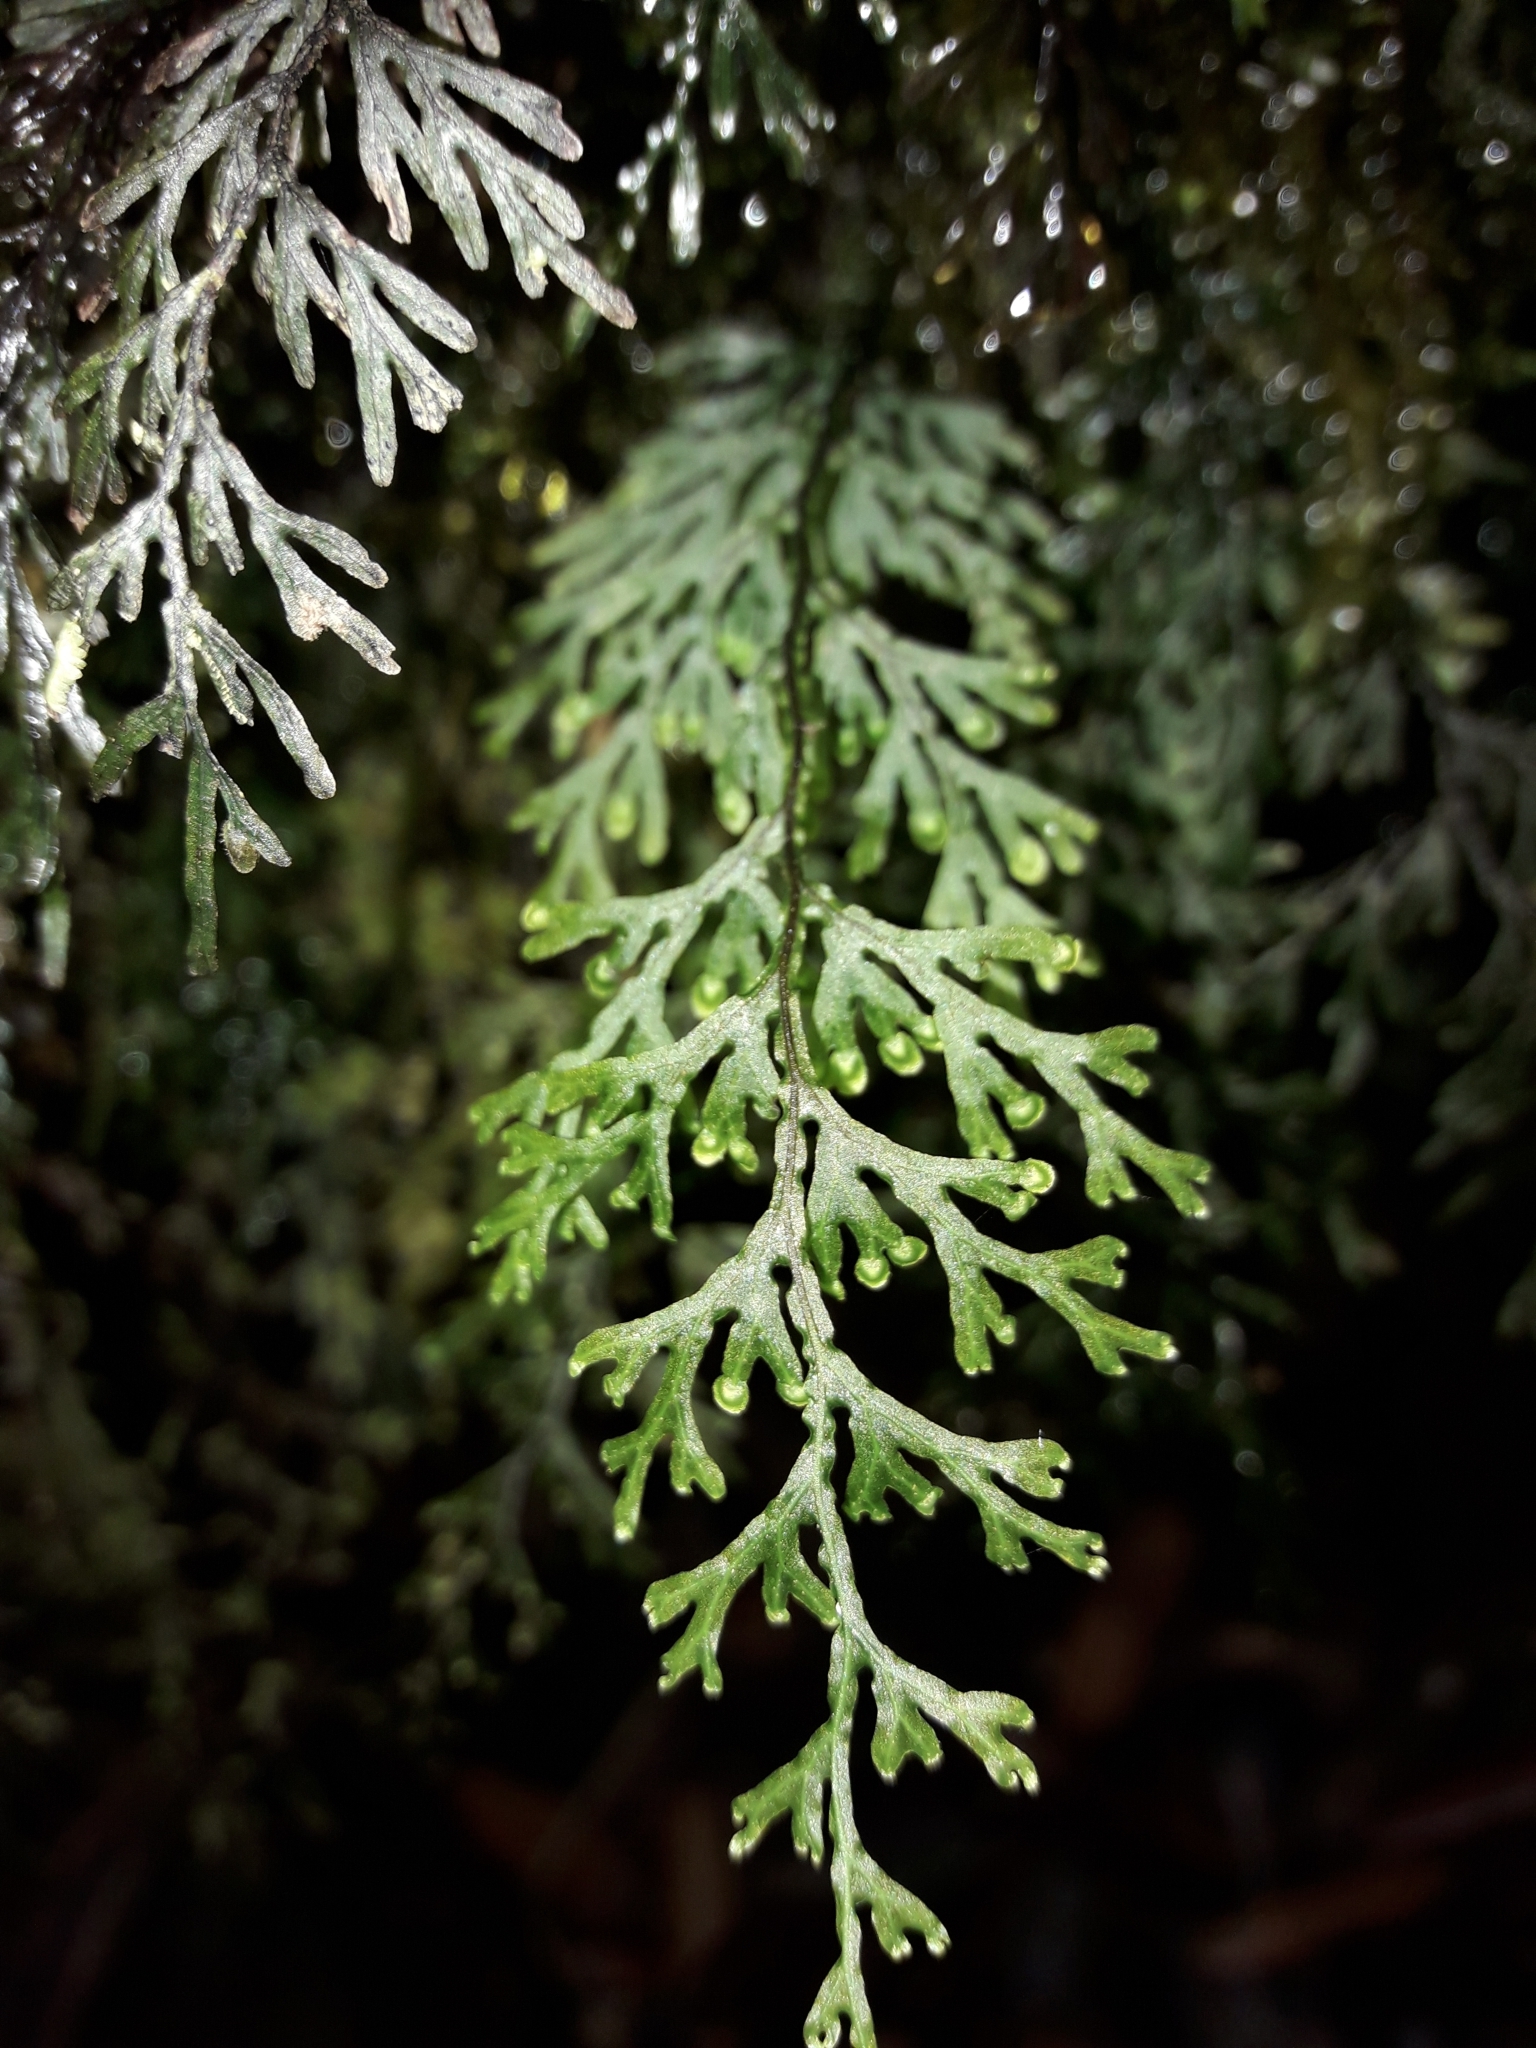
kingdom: Plantae
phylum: Tracheophyta
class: Polypodiopsida
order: Hymenophyllales
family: Hymenophyllaceae
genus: Hymenophyllum
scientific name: Hymenophyllum javanicum
